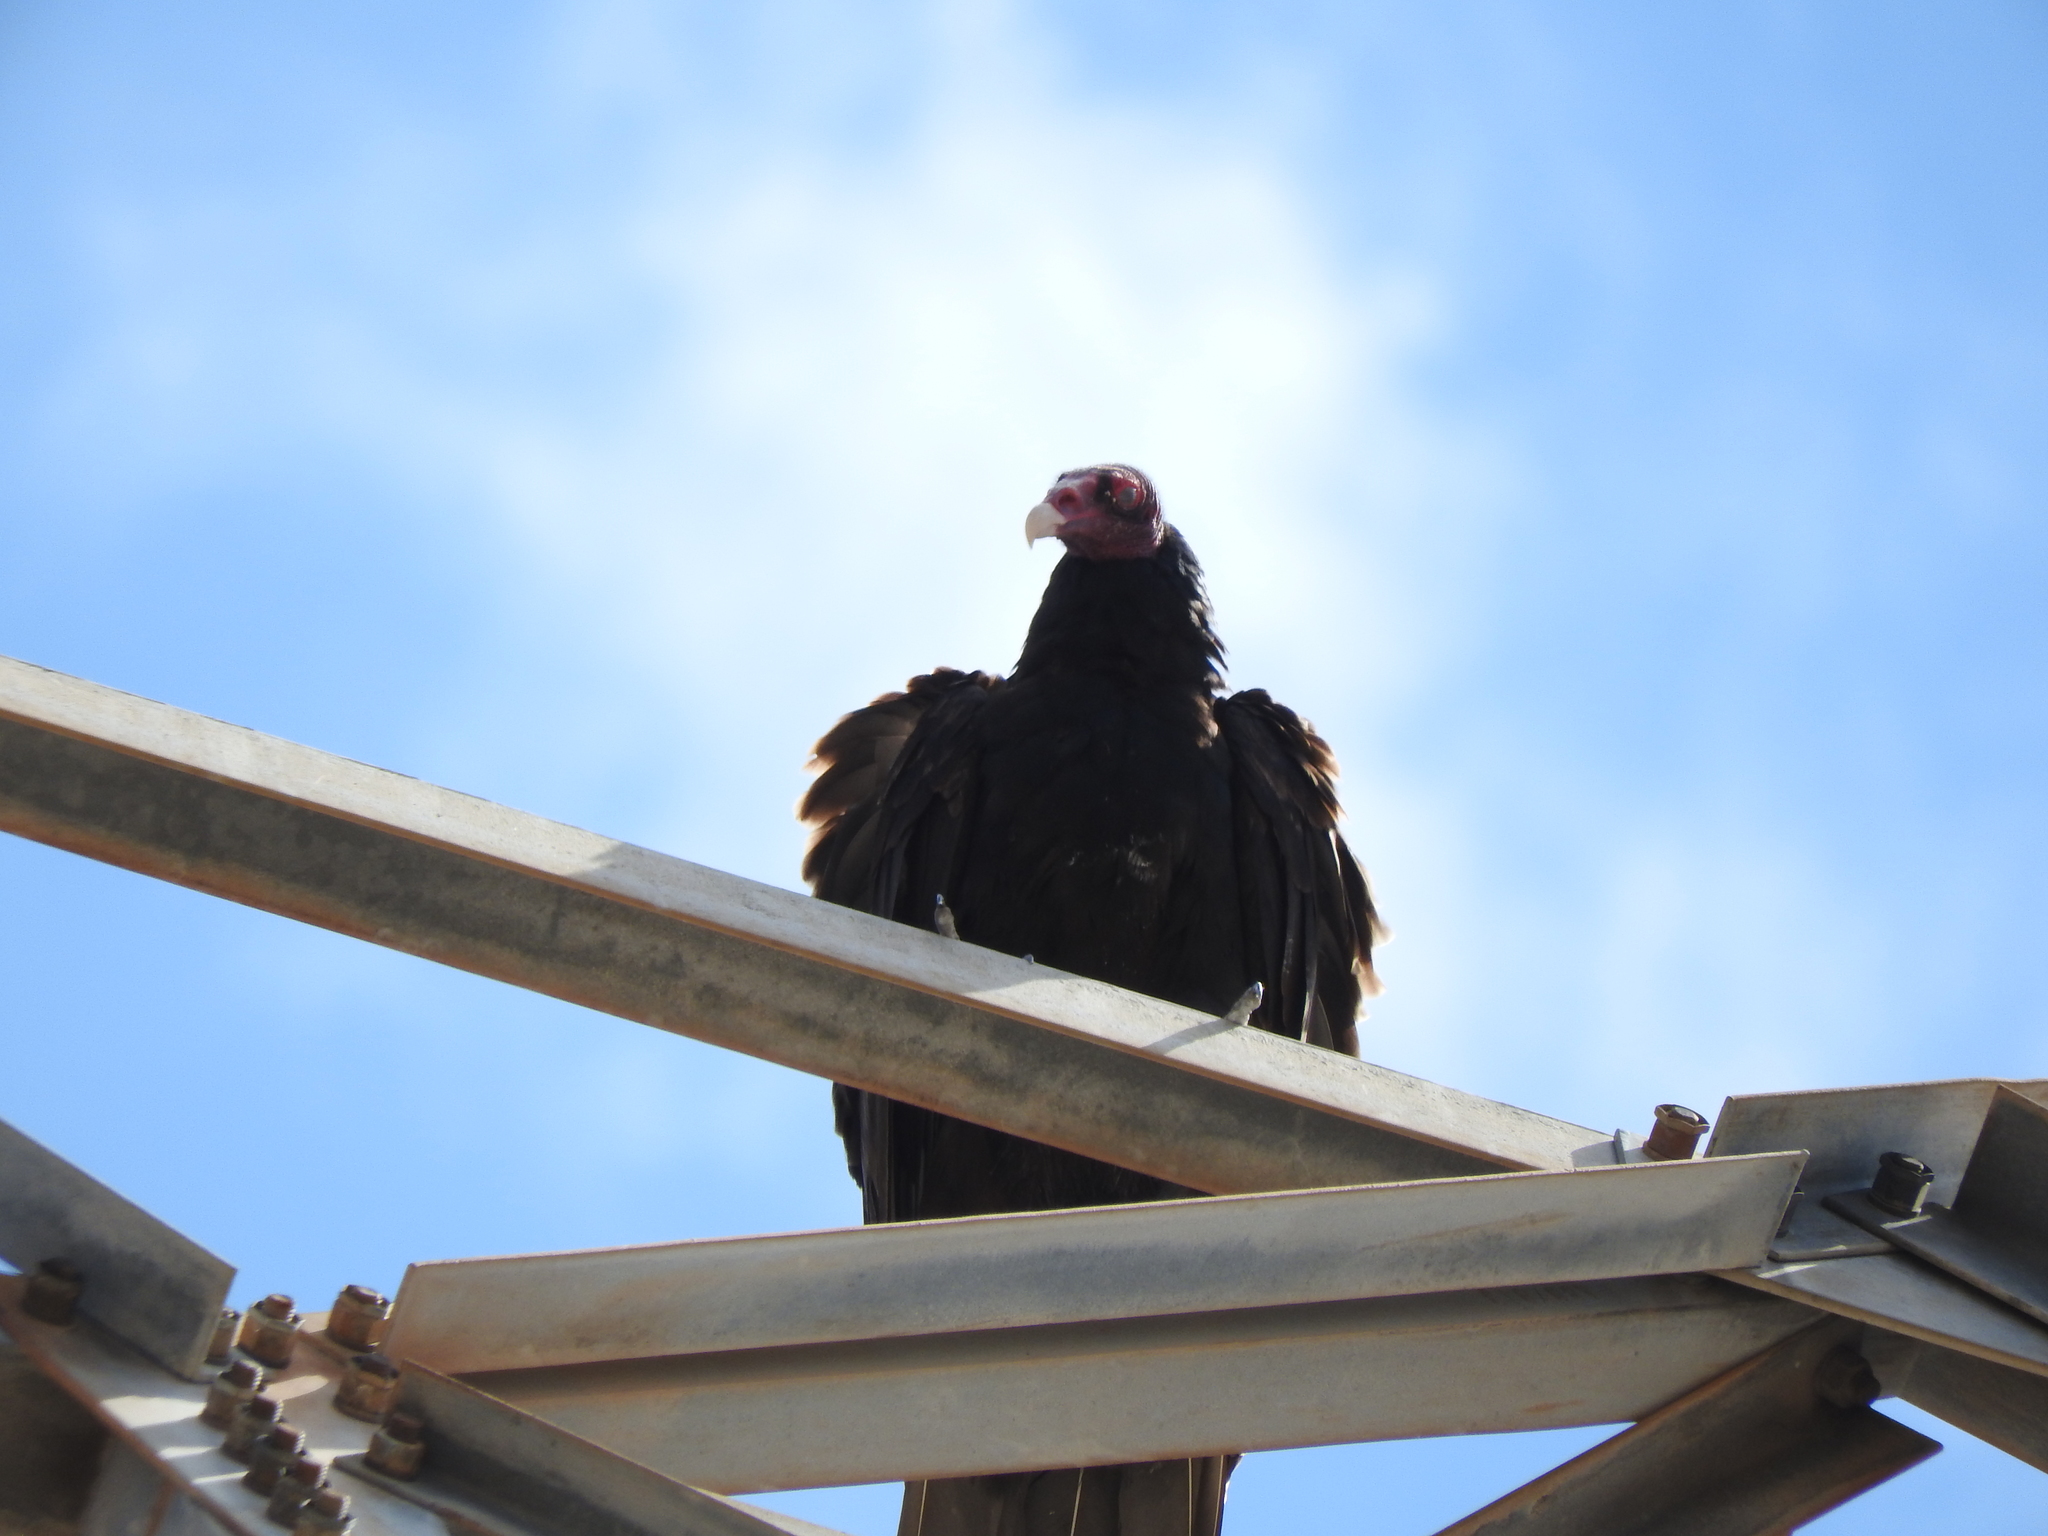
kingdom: Animalia
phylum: Chordata
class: Aves
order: Accipitriformes
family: Cathartidae
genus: Cathartes
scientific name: Cathartes aura
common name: Turkey vulture
